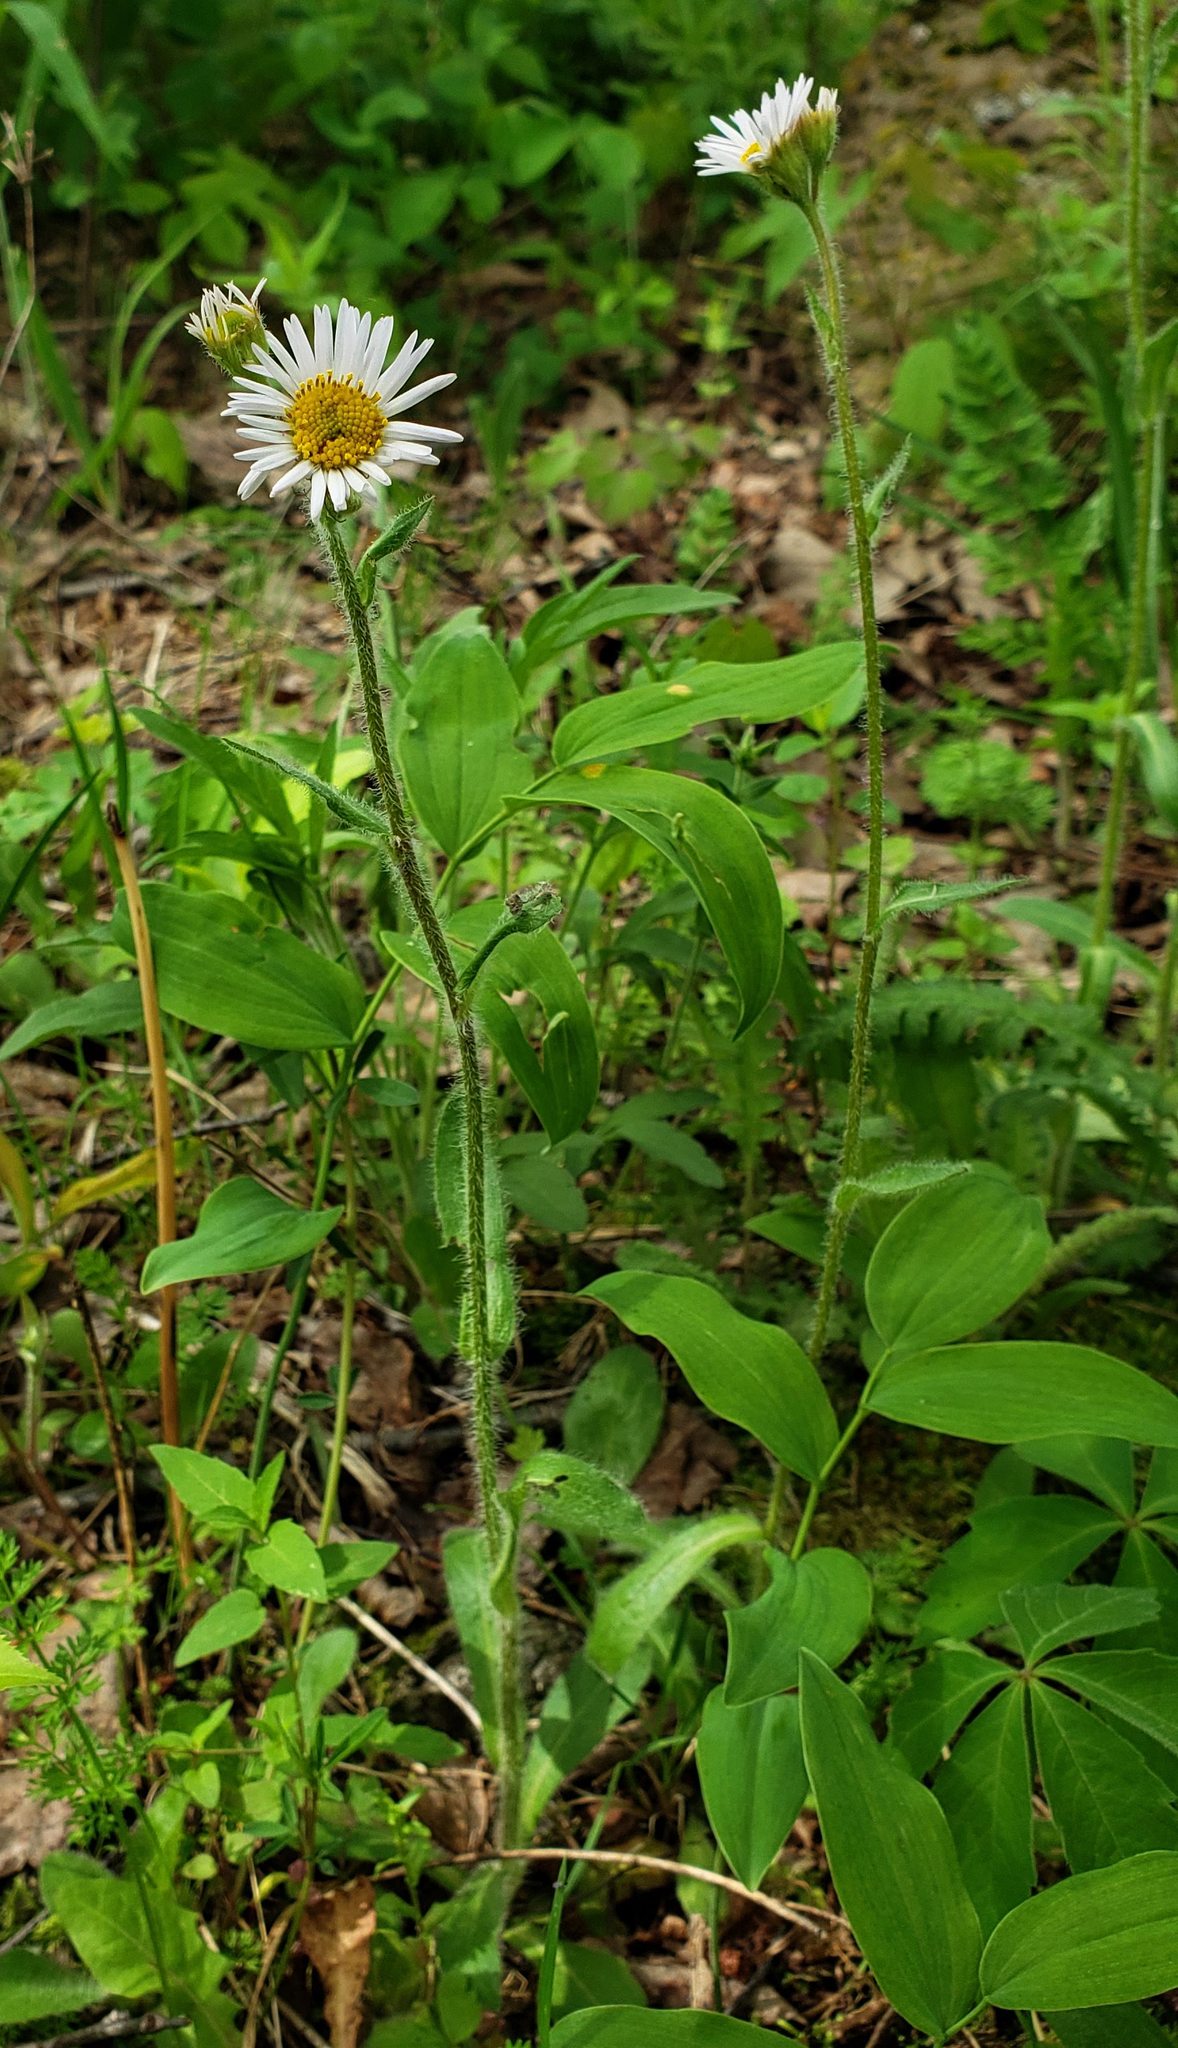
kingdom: Plantae
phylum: Tracheophyta
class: Magnoliopsida
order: Asterales
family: Asteraceae
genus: Erigeron
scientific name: Erigeron pulchellus
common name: Hairy fleabane
